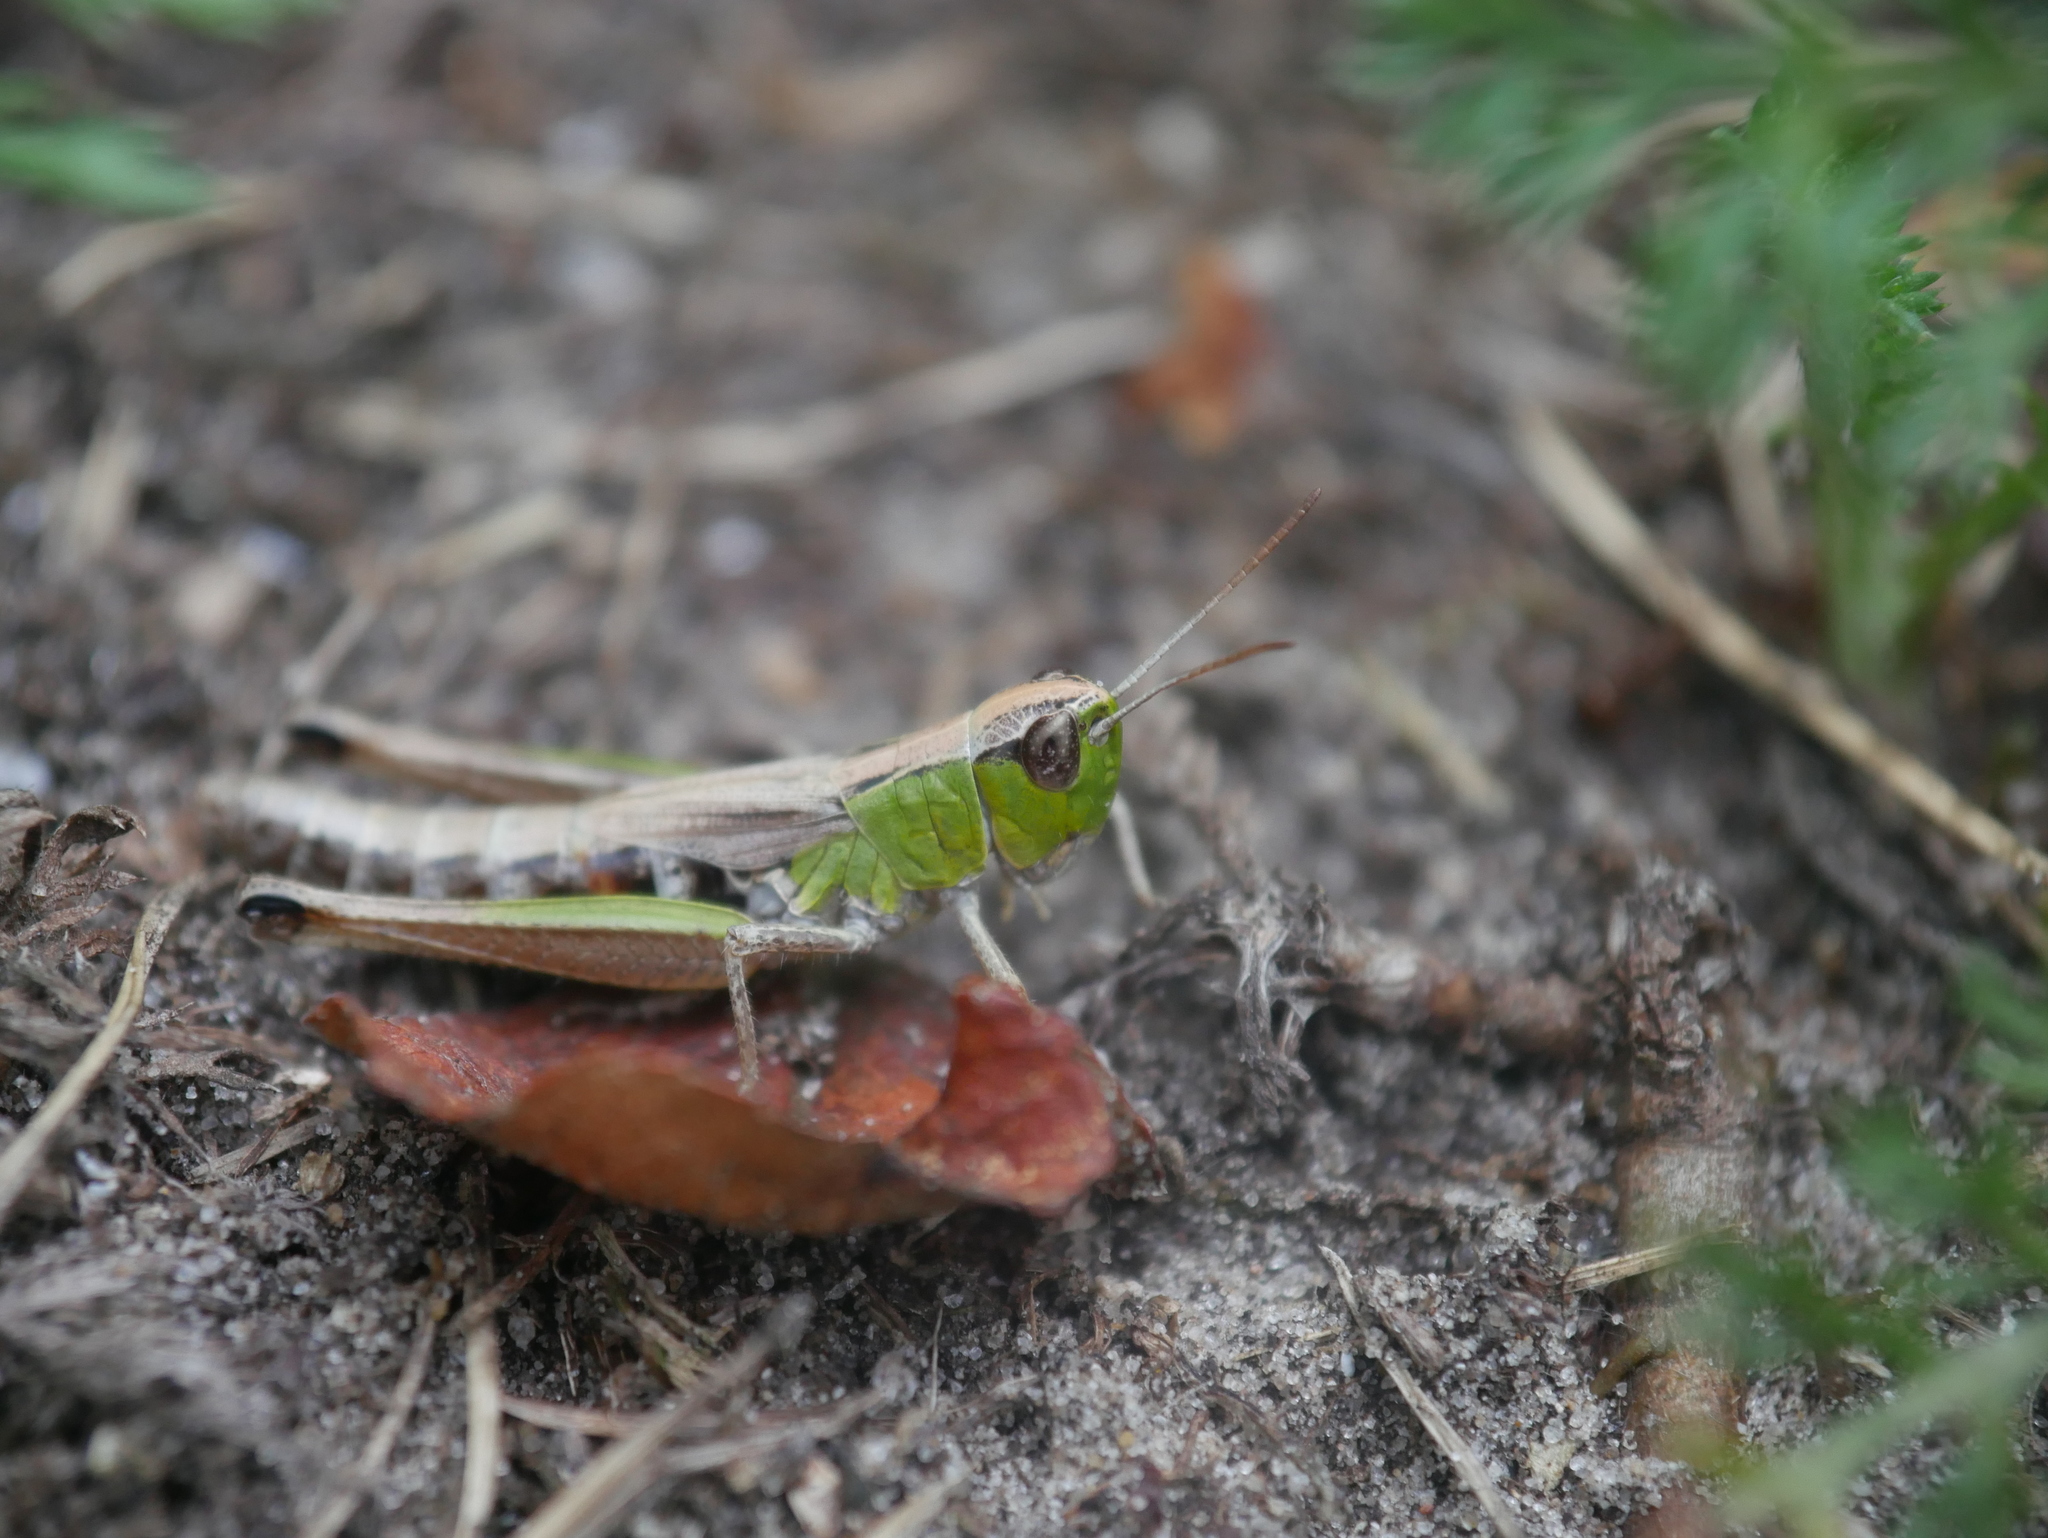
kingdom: Animalia
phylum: Arthropoda
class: Insecta
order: Orthoptera
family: Acrididae
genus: Pseudochorthippus
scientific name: Pseudochorthippus parallelus
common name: Meadow grasshopper
